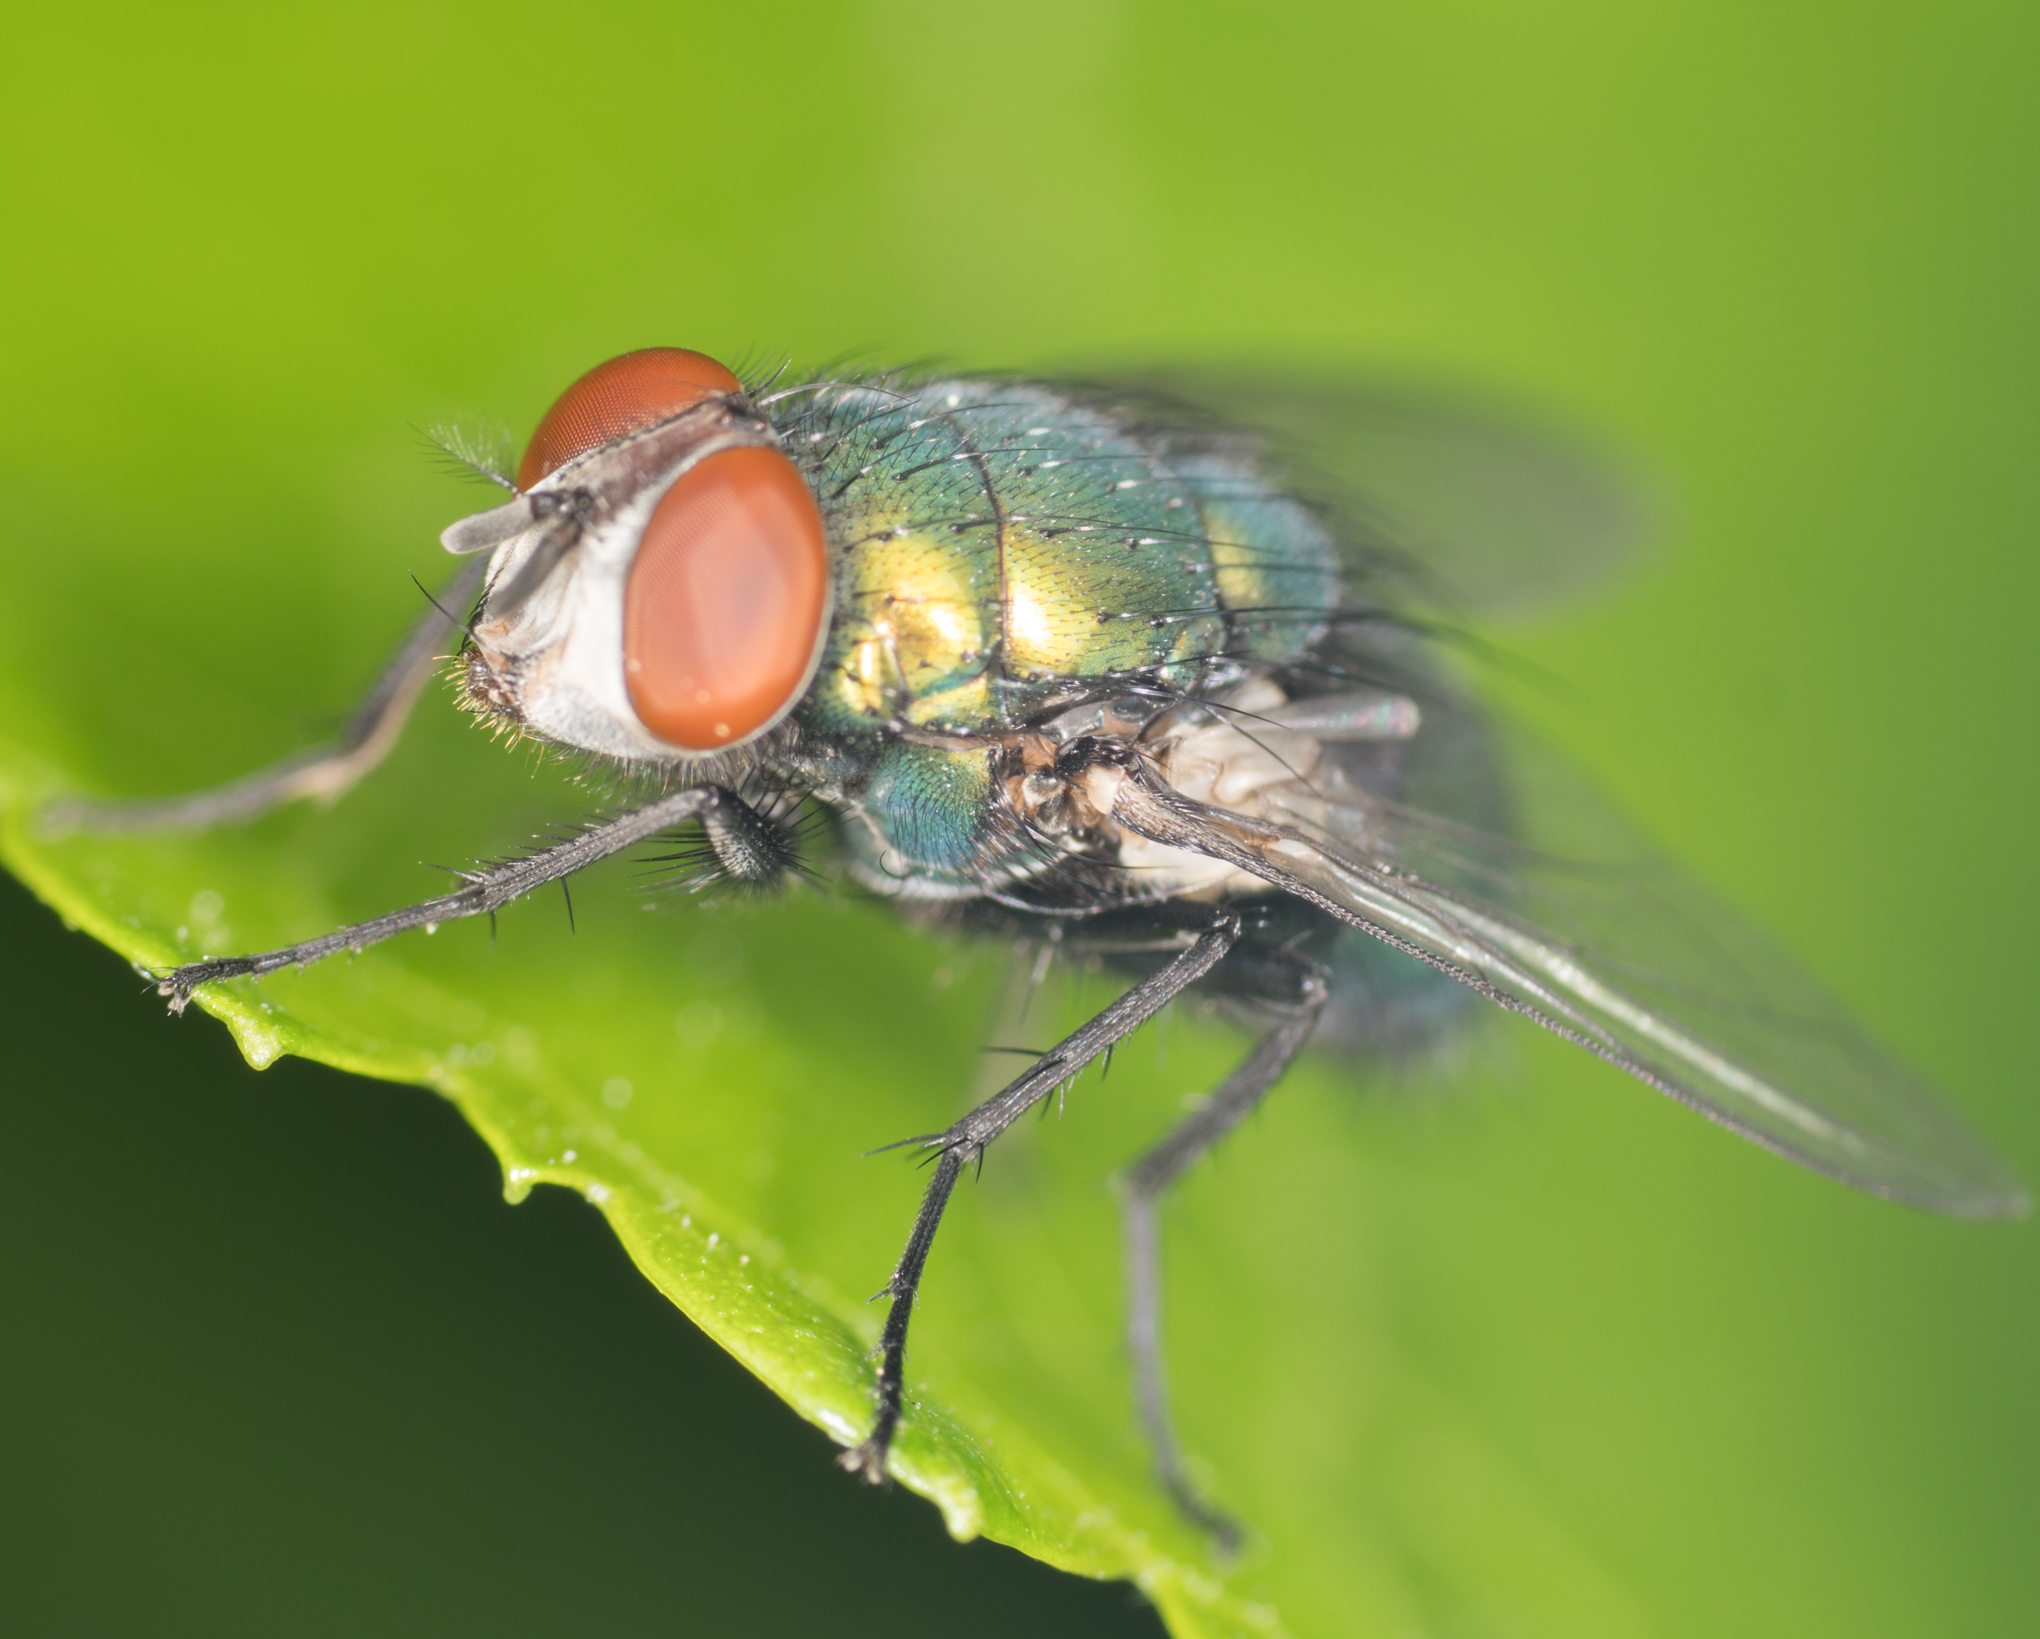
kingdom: Animalia
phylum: Arthropoda
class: Insecta
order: Diptera
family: Calliphoridae
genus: Lucilia
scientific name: Lucilia sericata
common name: Blow fly
